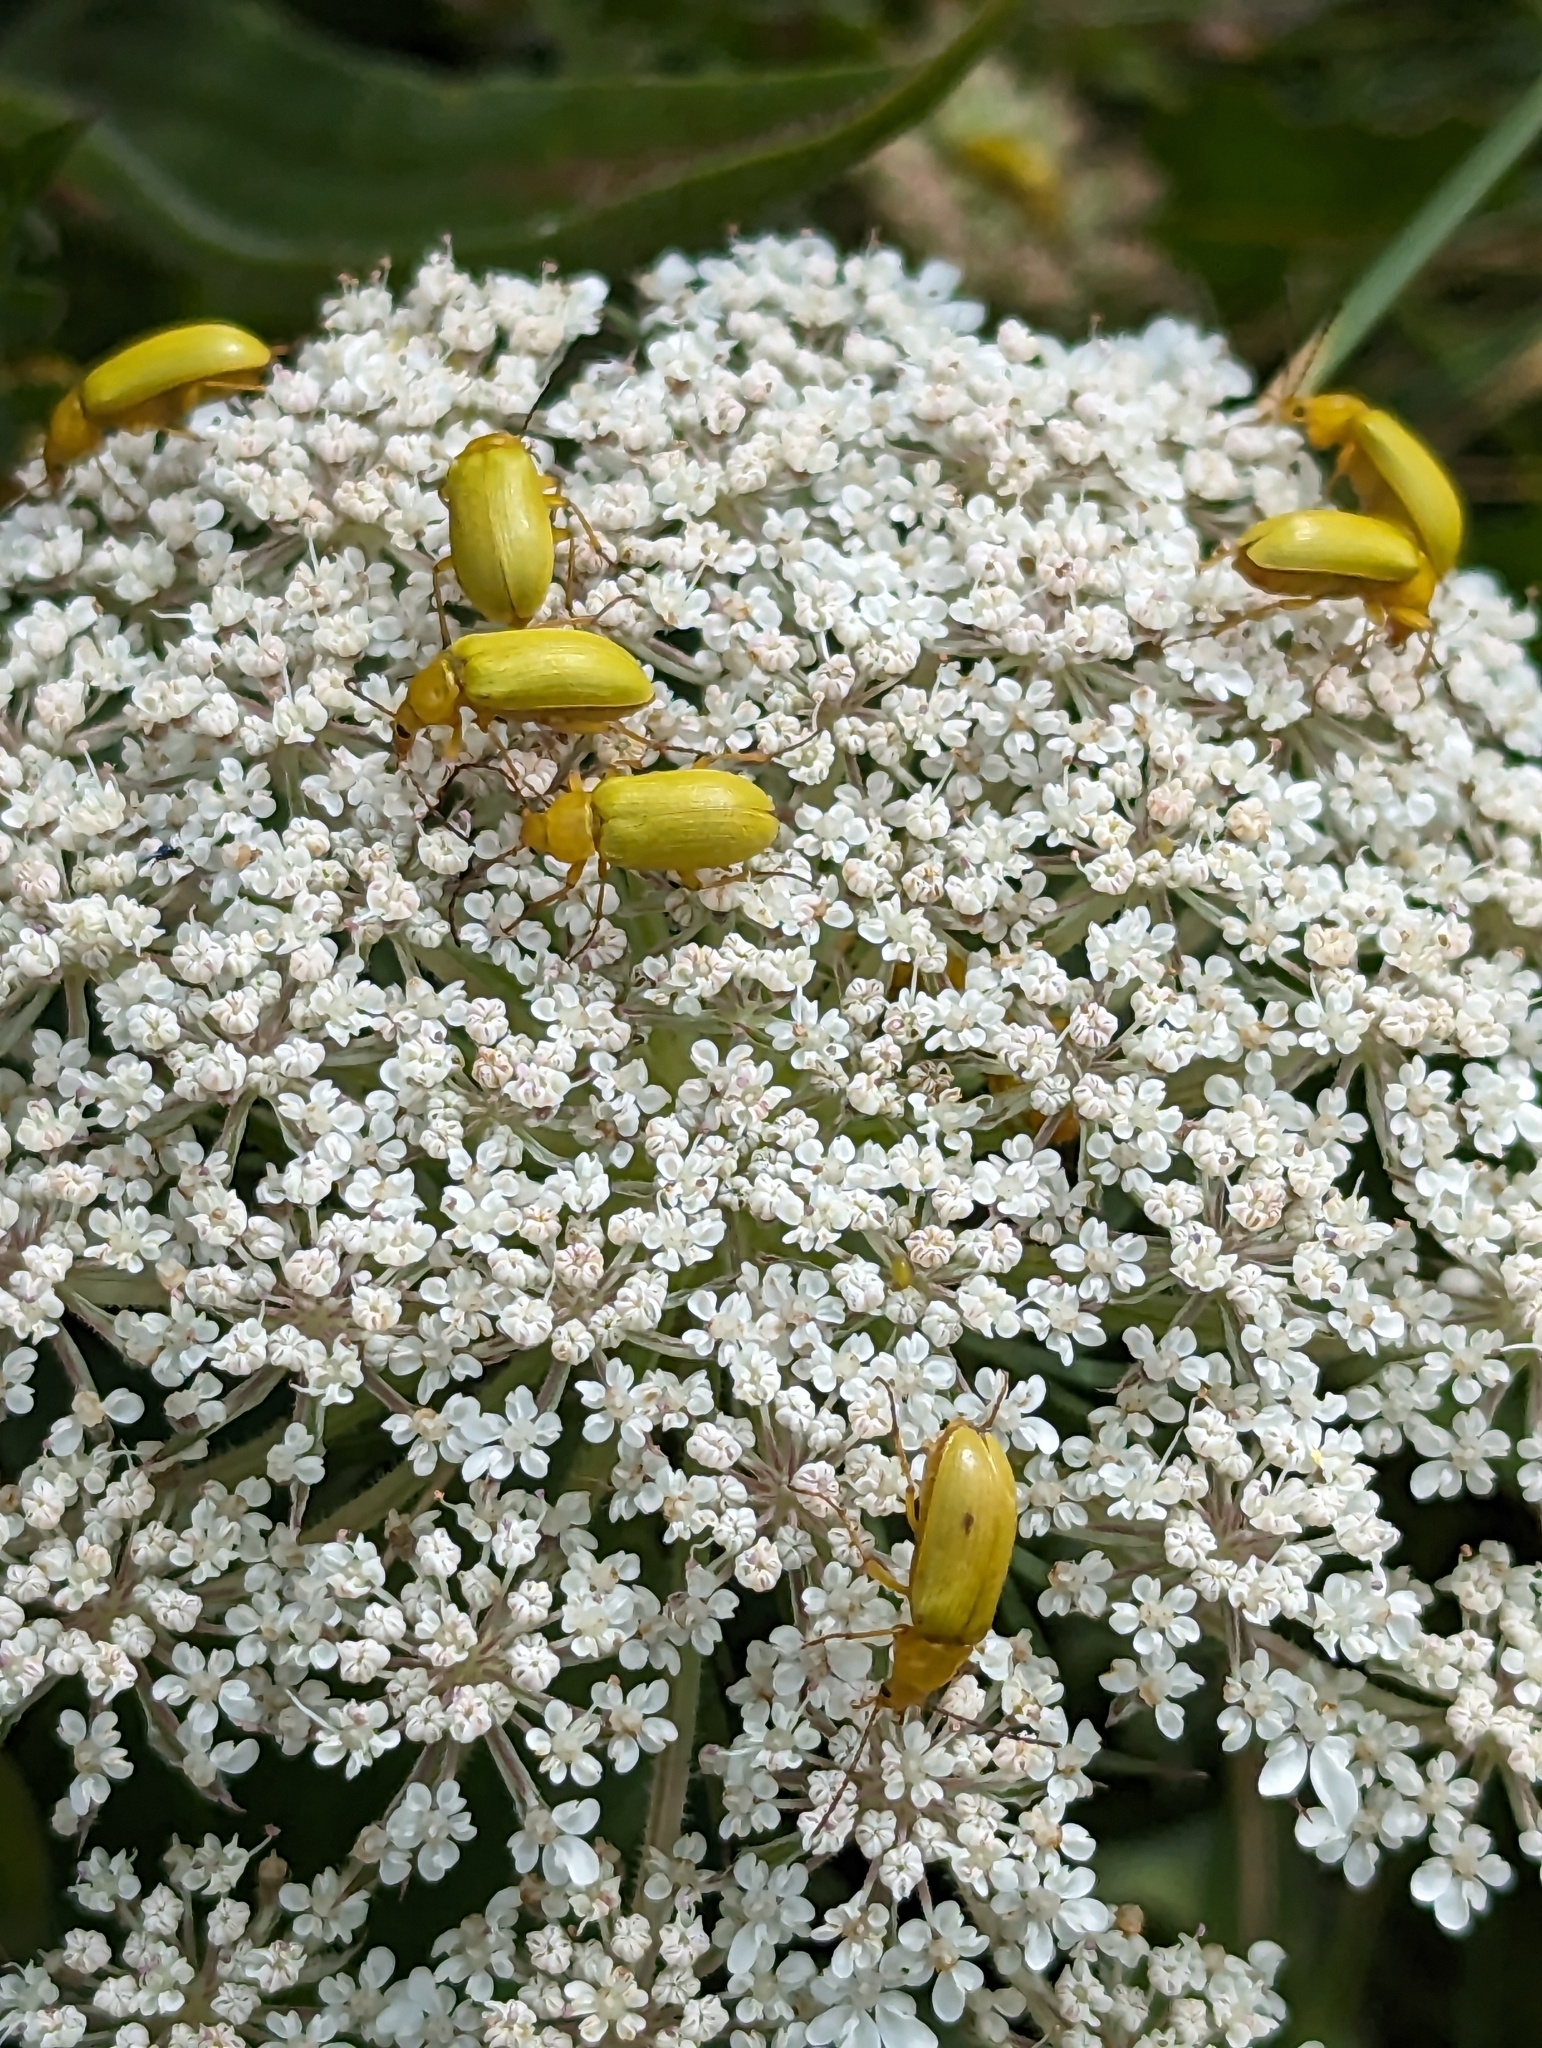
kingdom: Animalia
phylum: Arthropoda
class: Insecta
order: Coleoptera
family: Tenebrionidae
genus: Cteniopus
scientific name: Cteniopus sulphureus
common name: Sulphur beetle
